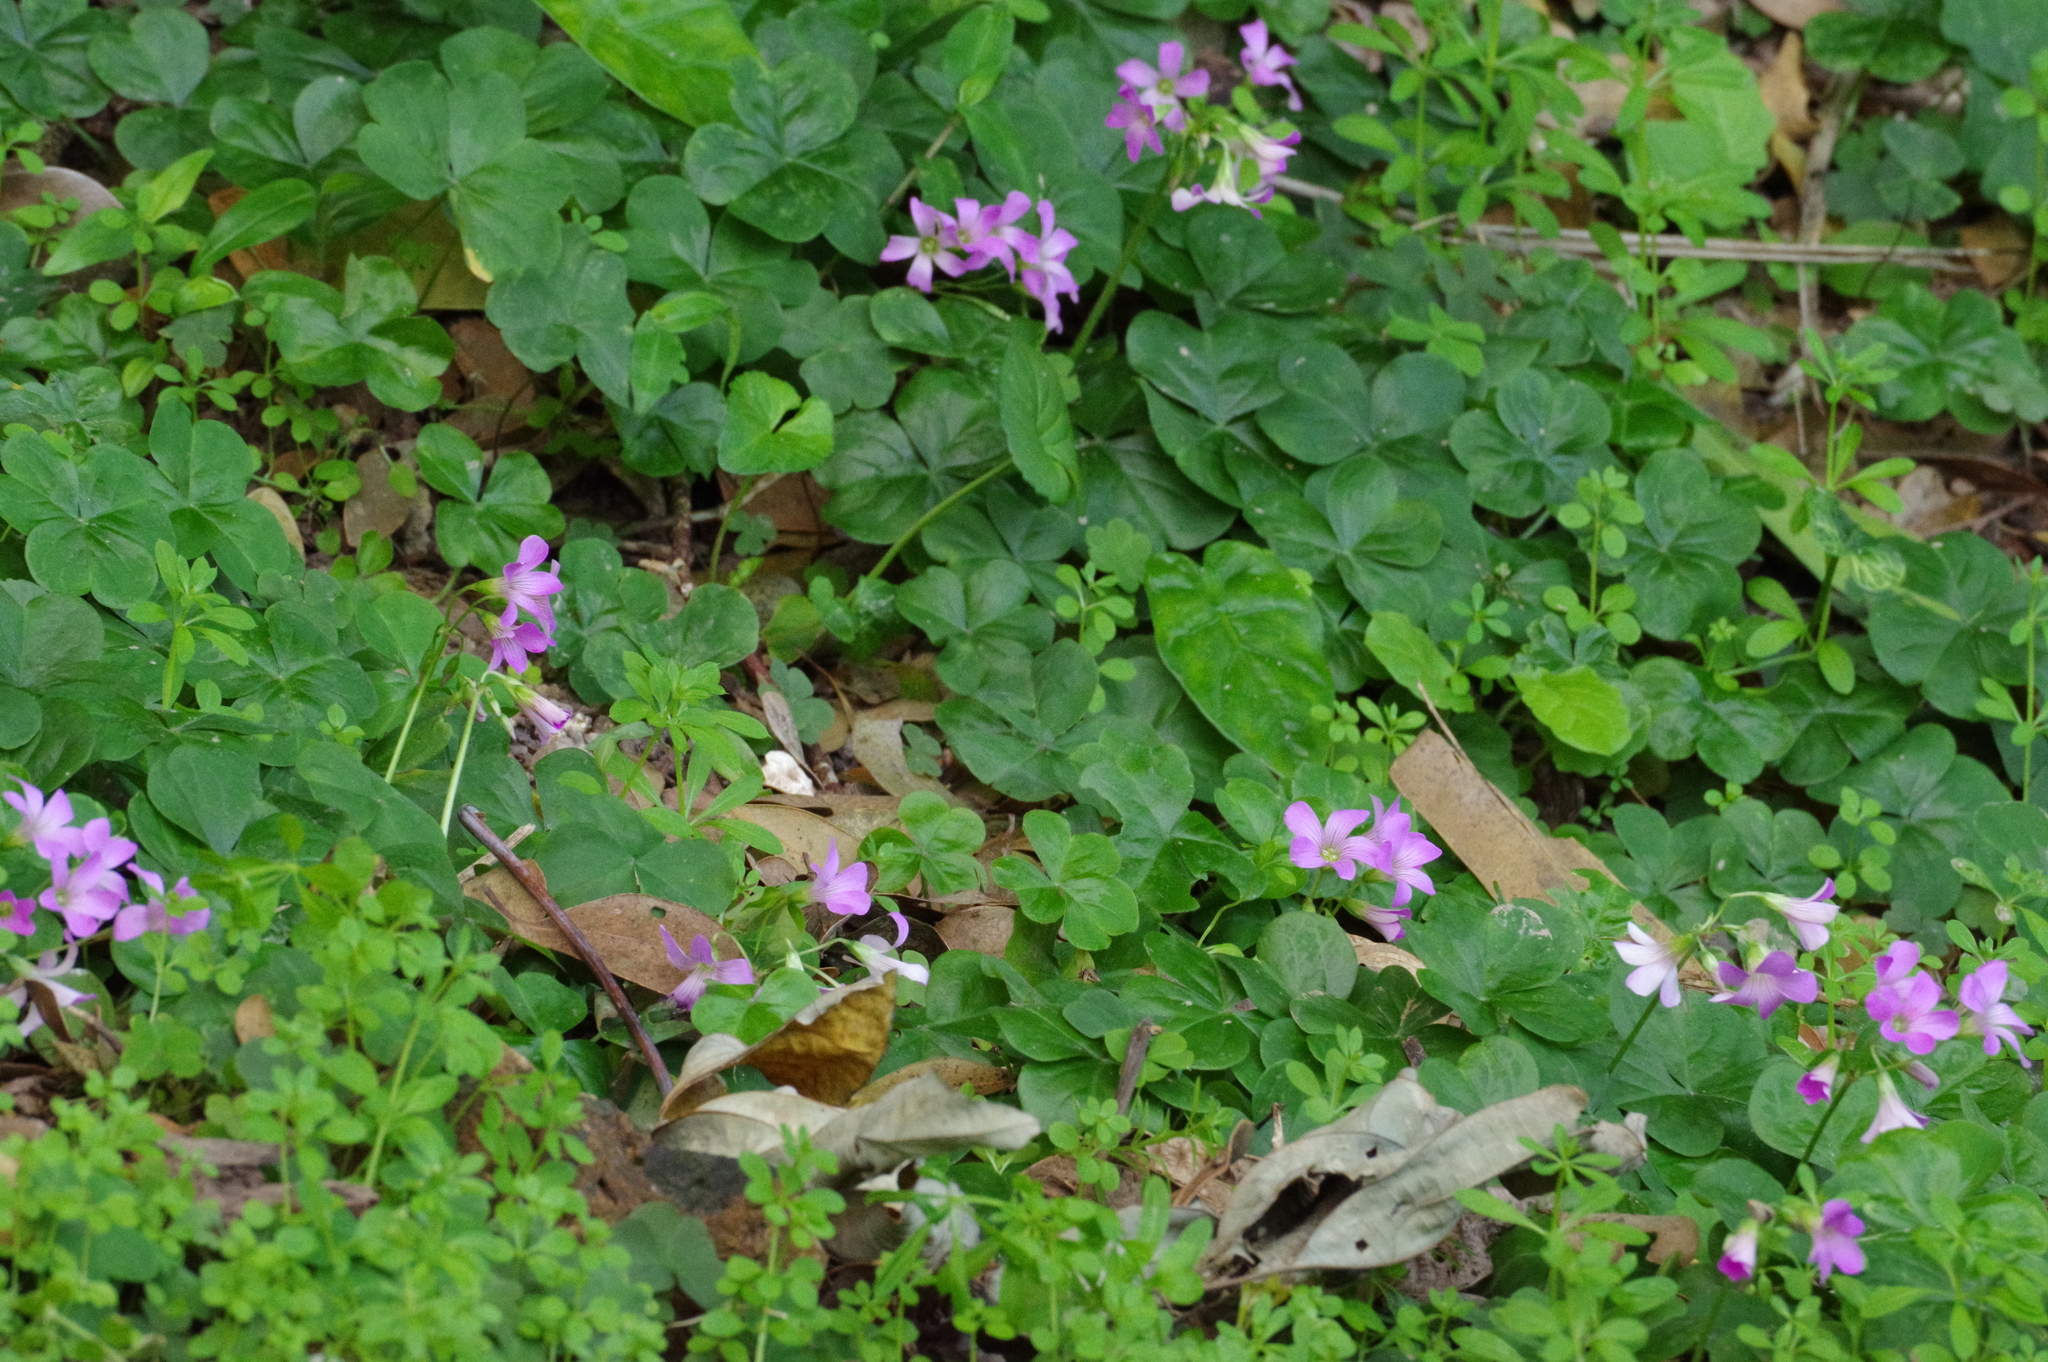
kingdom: Plantae
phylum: Tracheophyta
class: Magnoliopsida
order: Oxalidales
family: Oxalidaceae
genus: Oxalis
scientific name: Oxalis debilis
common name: Large-flowered pink-sorrel
